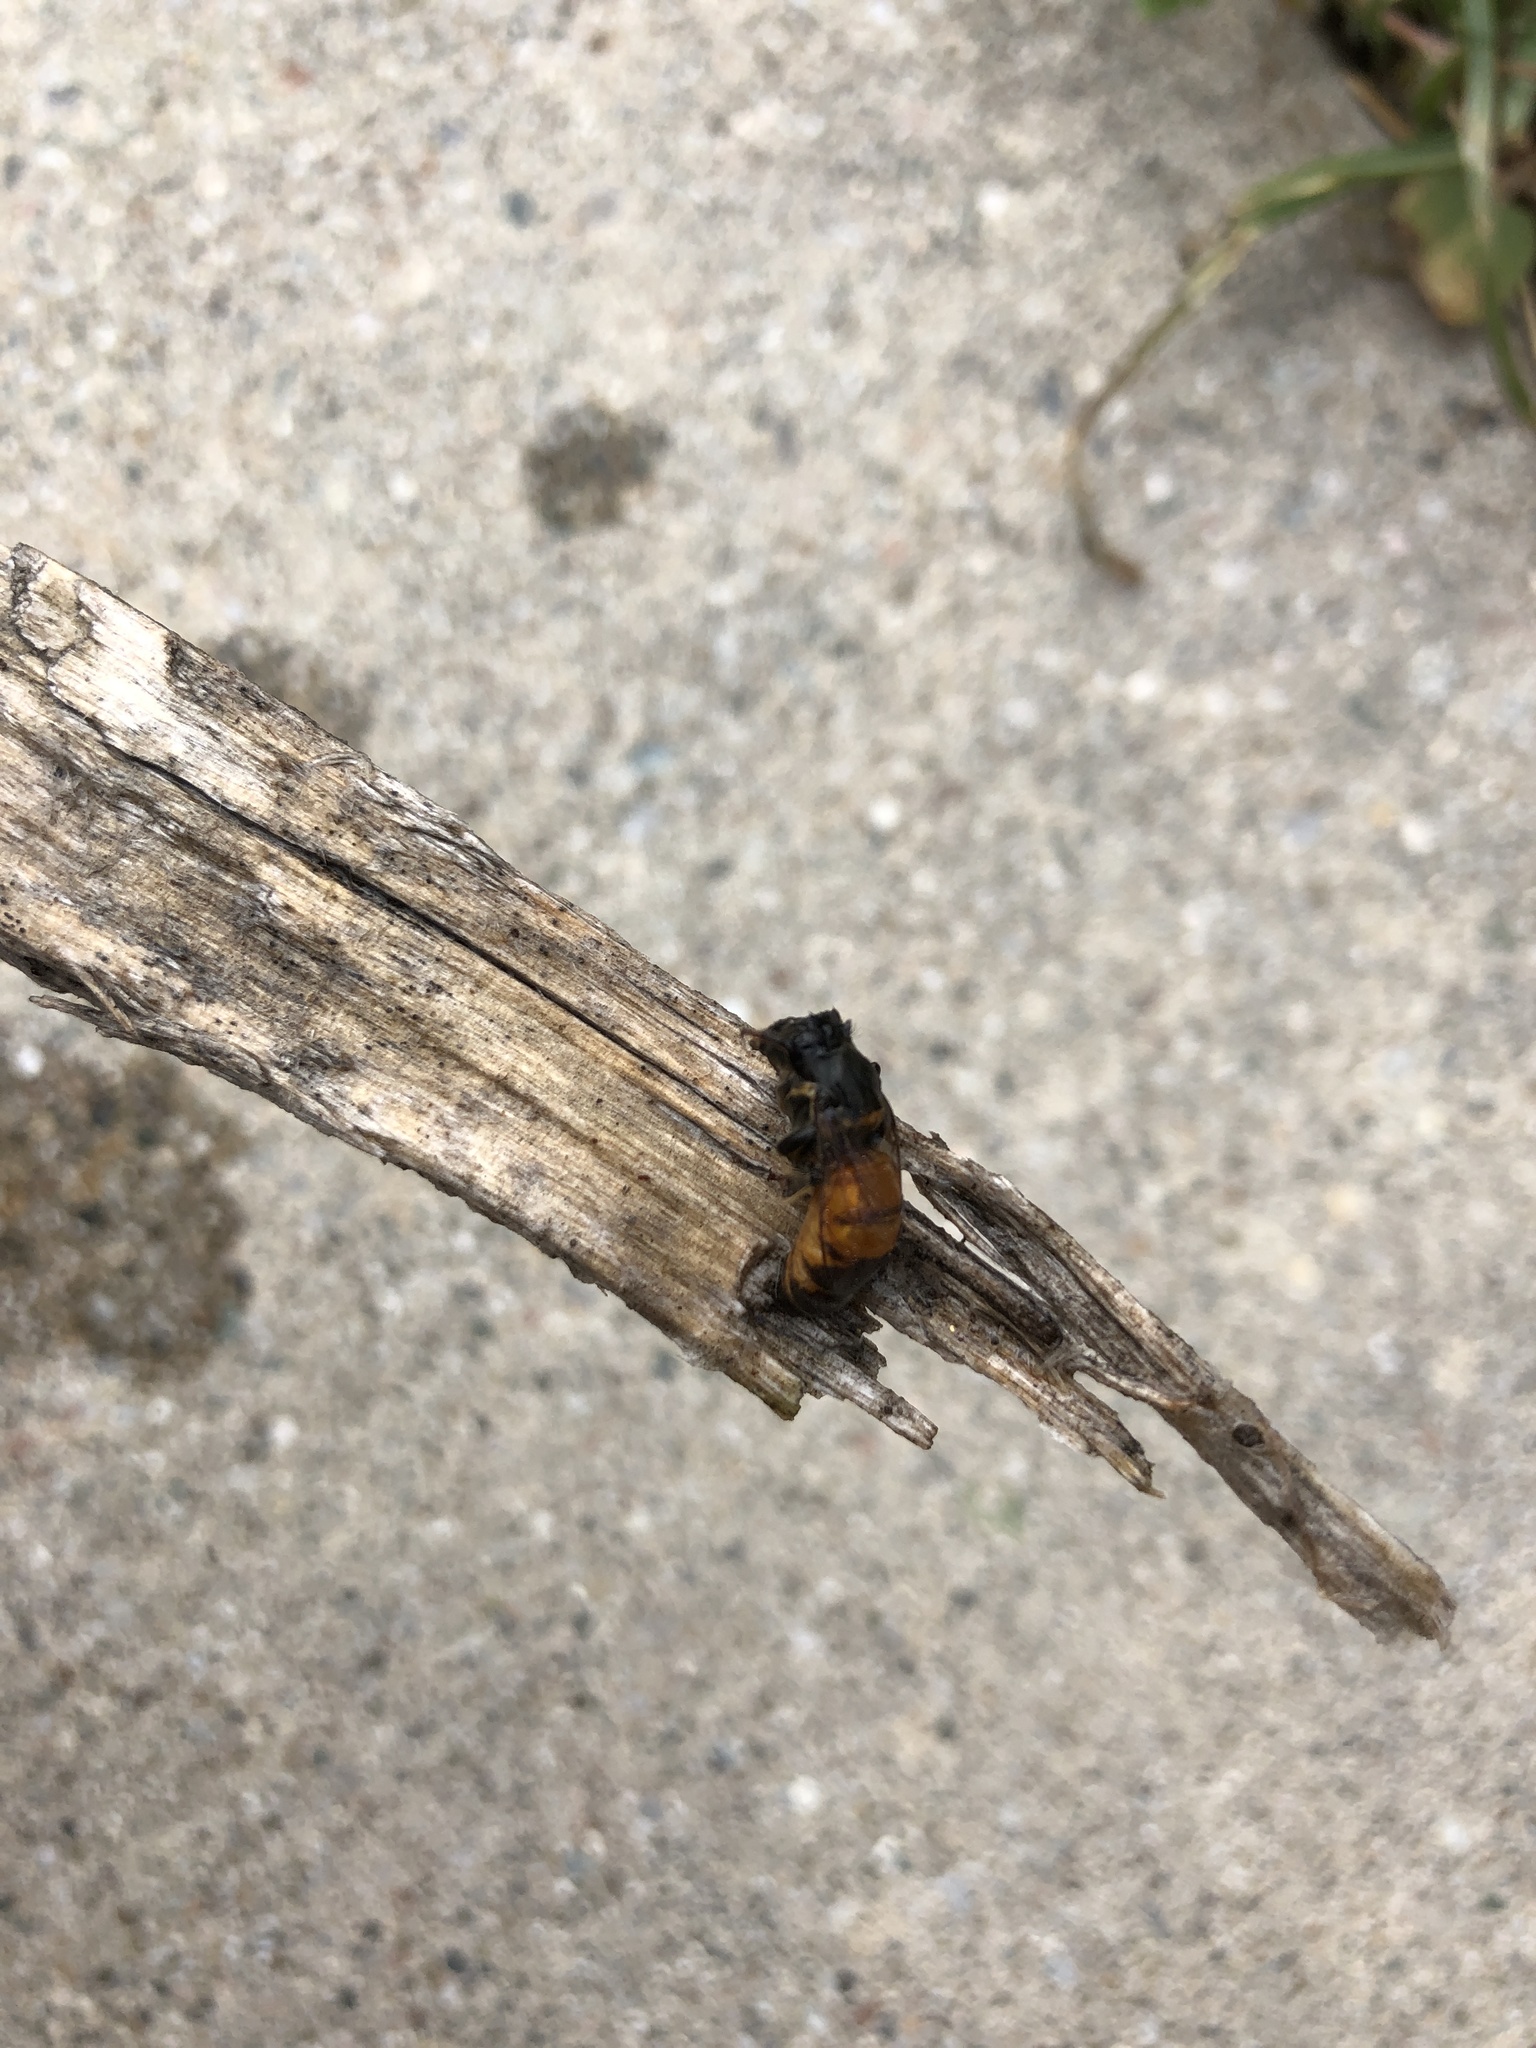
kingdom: Animalia
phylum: Arthropoda
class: Insecta
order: Hymenoptera
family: Apidae
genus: Apis
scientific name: Apis mellifera
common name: Honey bee
